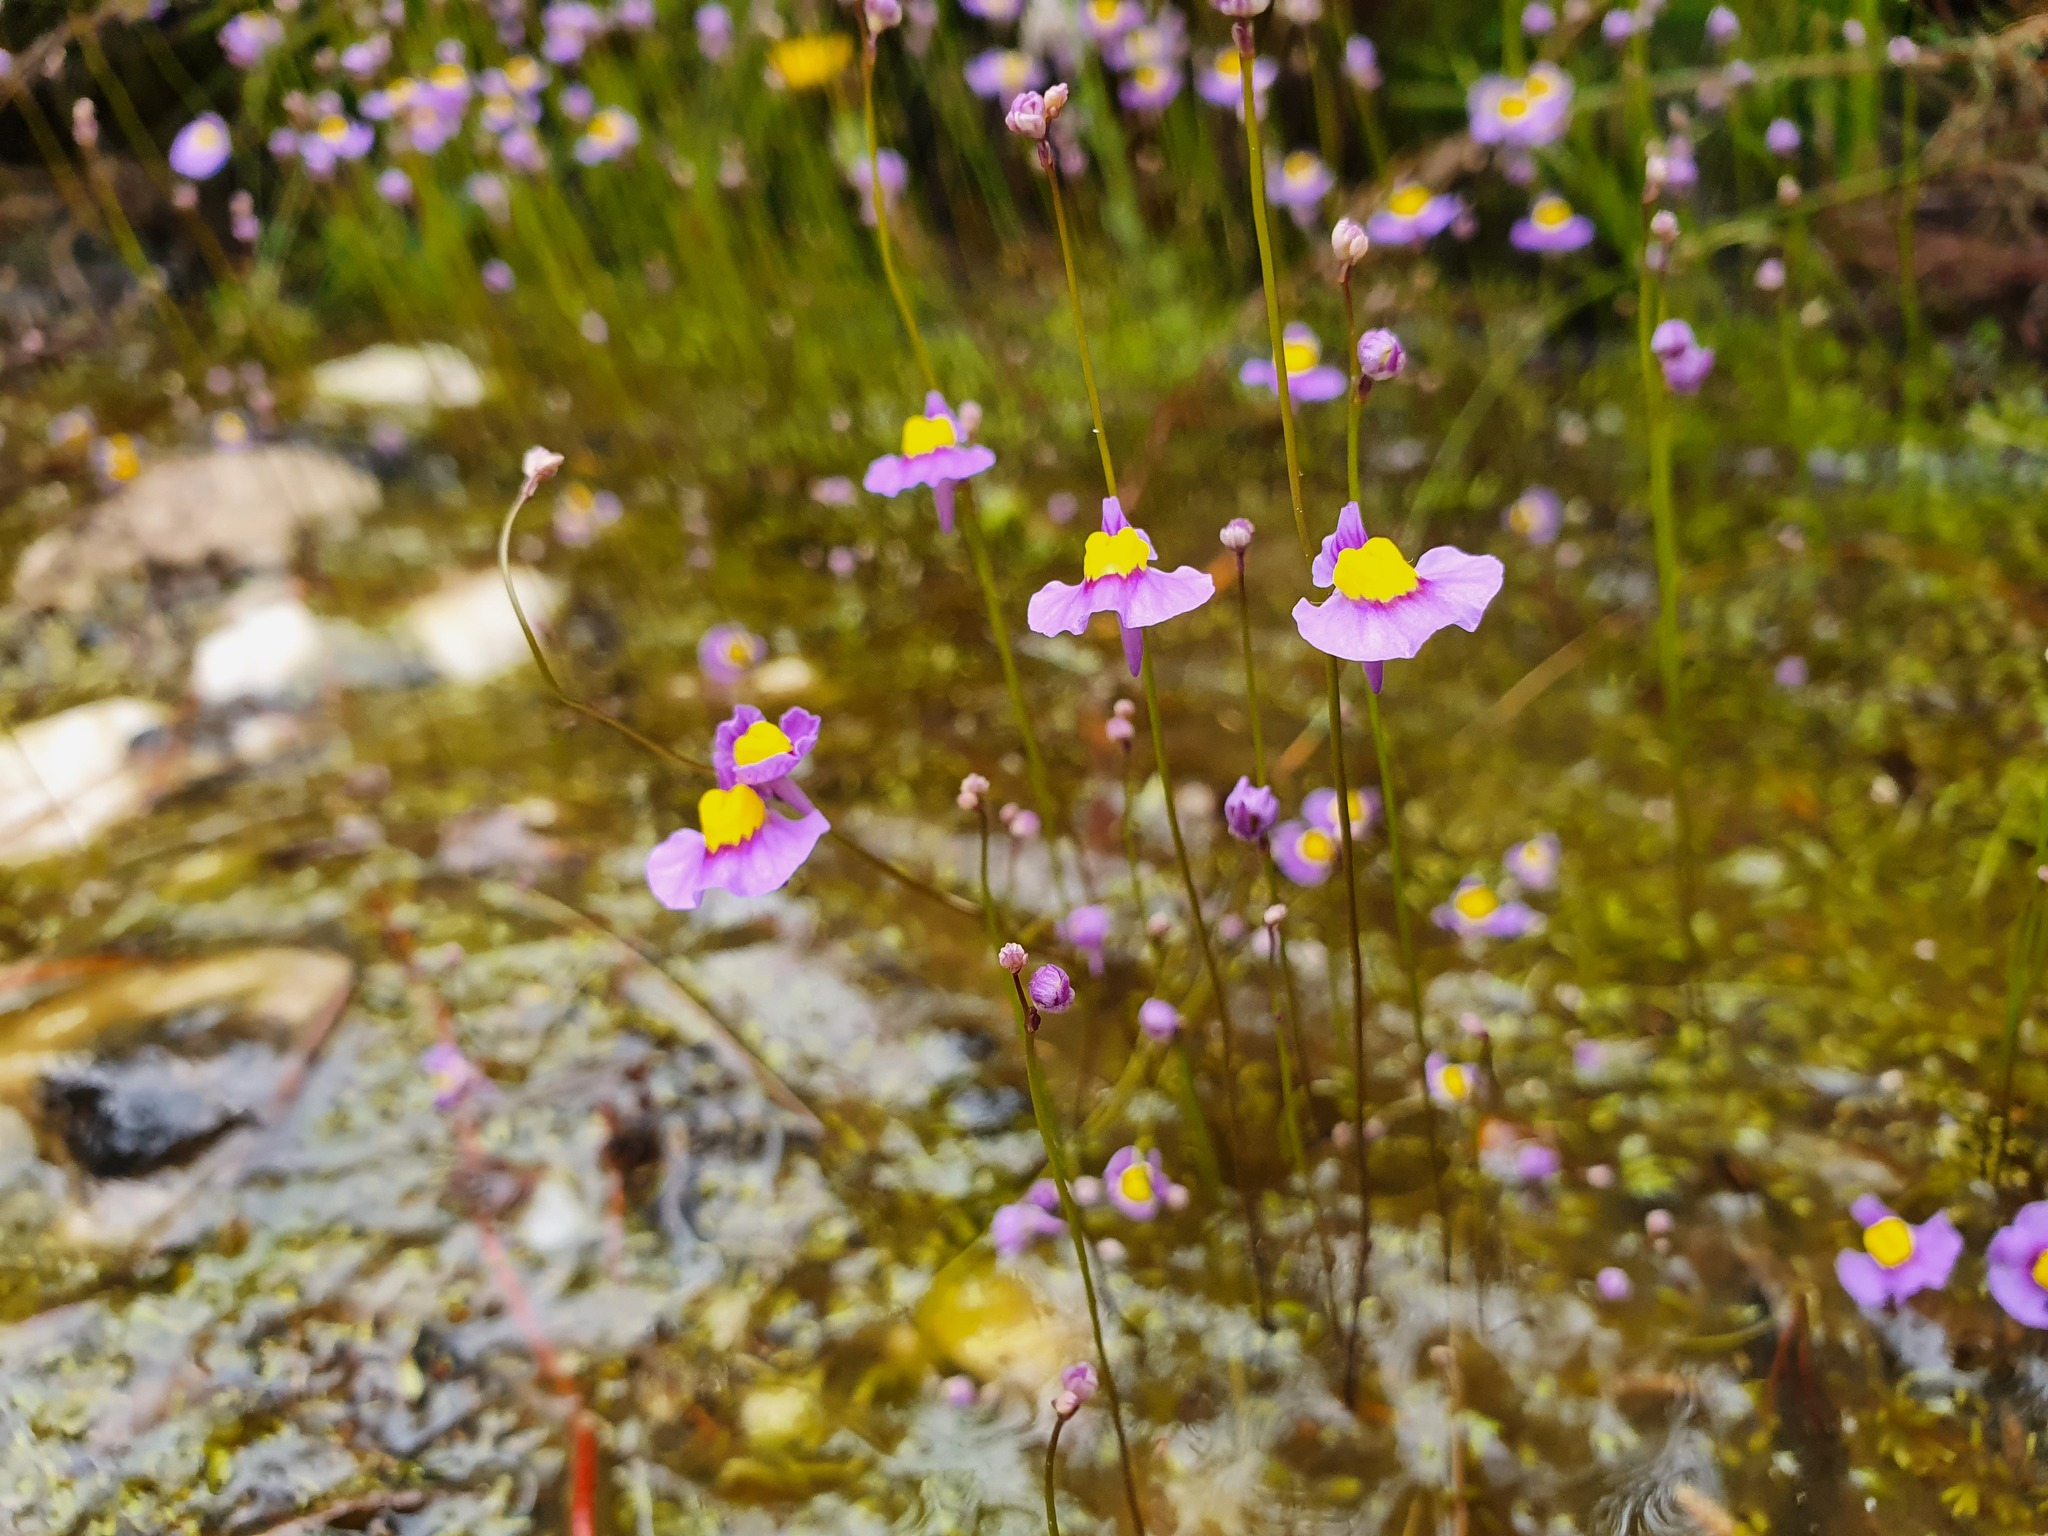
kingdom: Plantae
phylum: Tracheophyta
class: Magnoliopsida
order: Lamiales
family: Lentibulariaceae
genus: Utricularia
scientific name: Utricularia bisquamata
